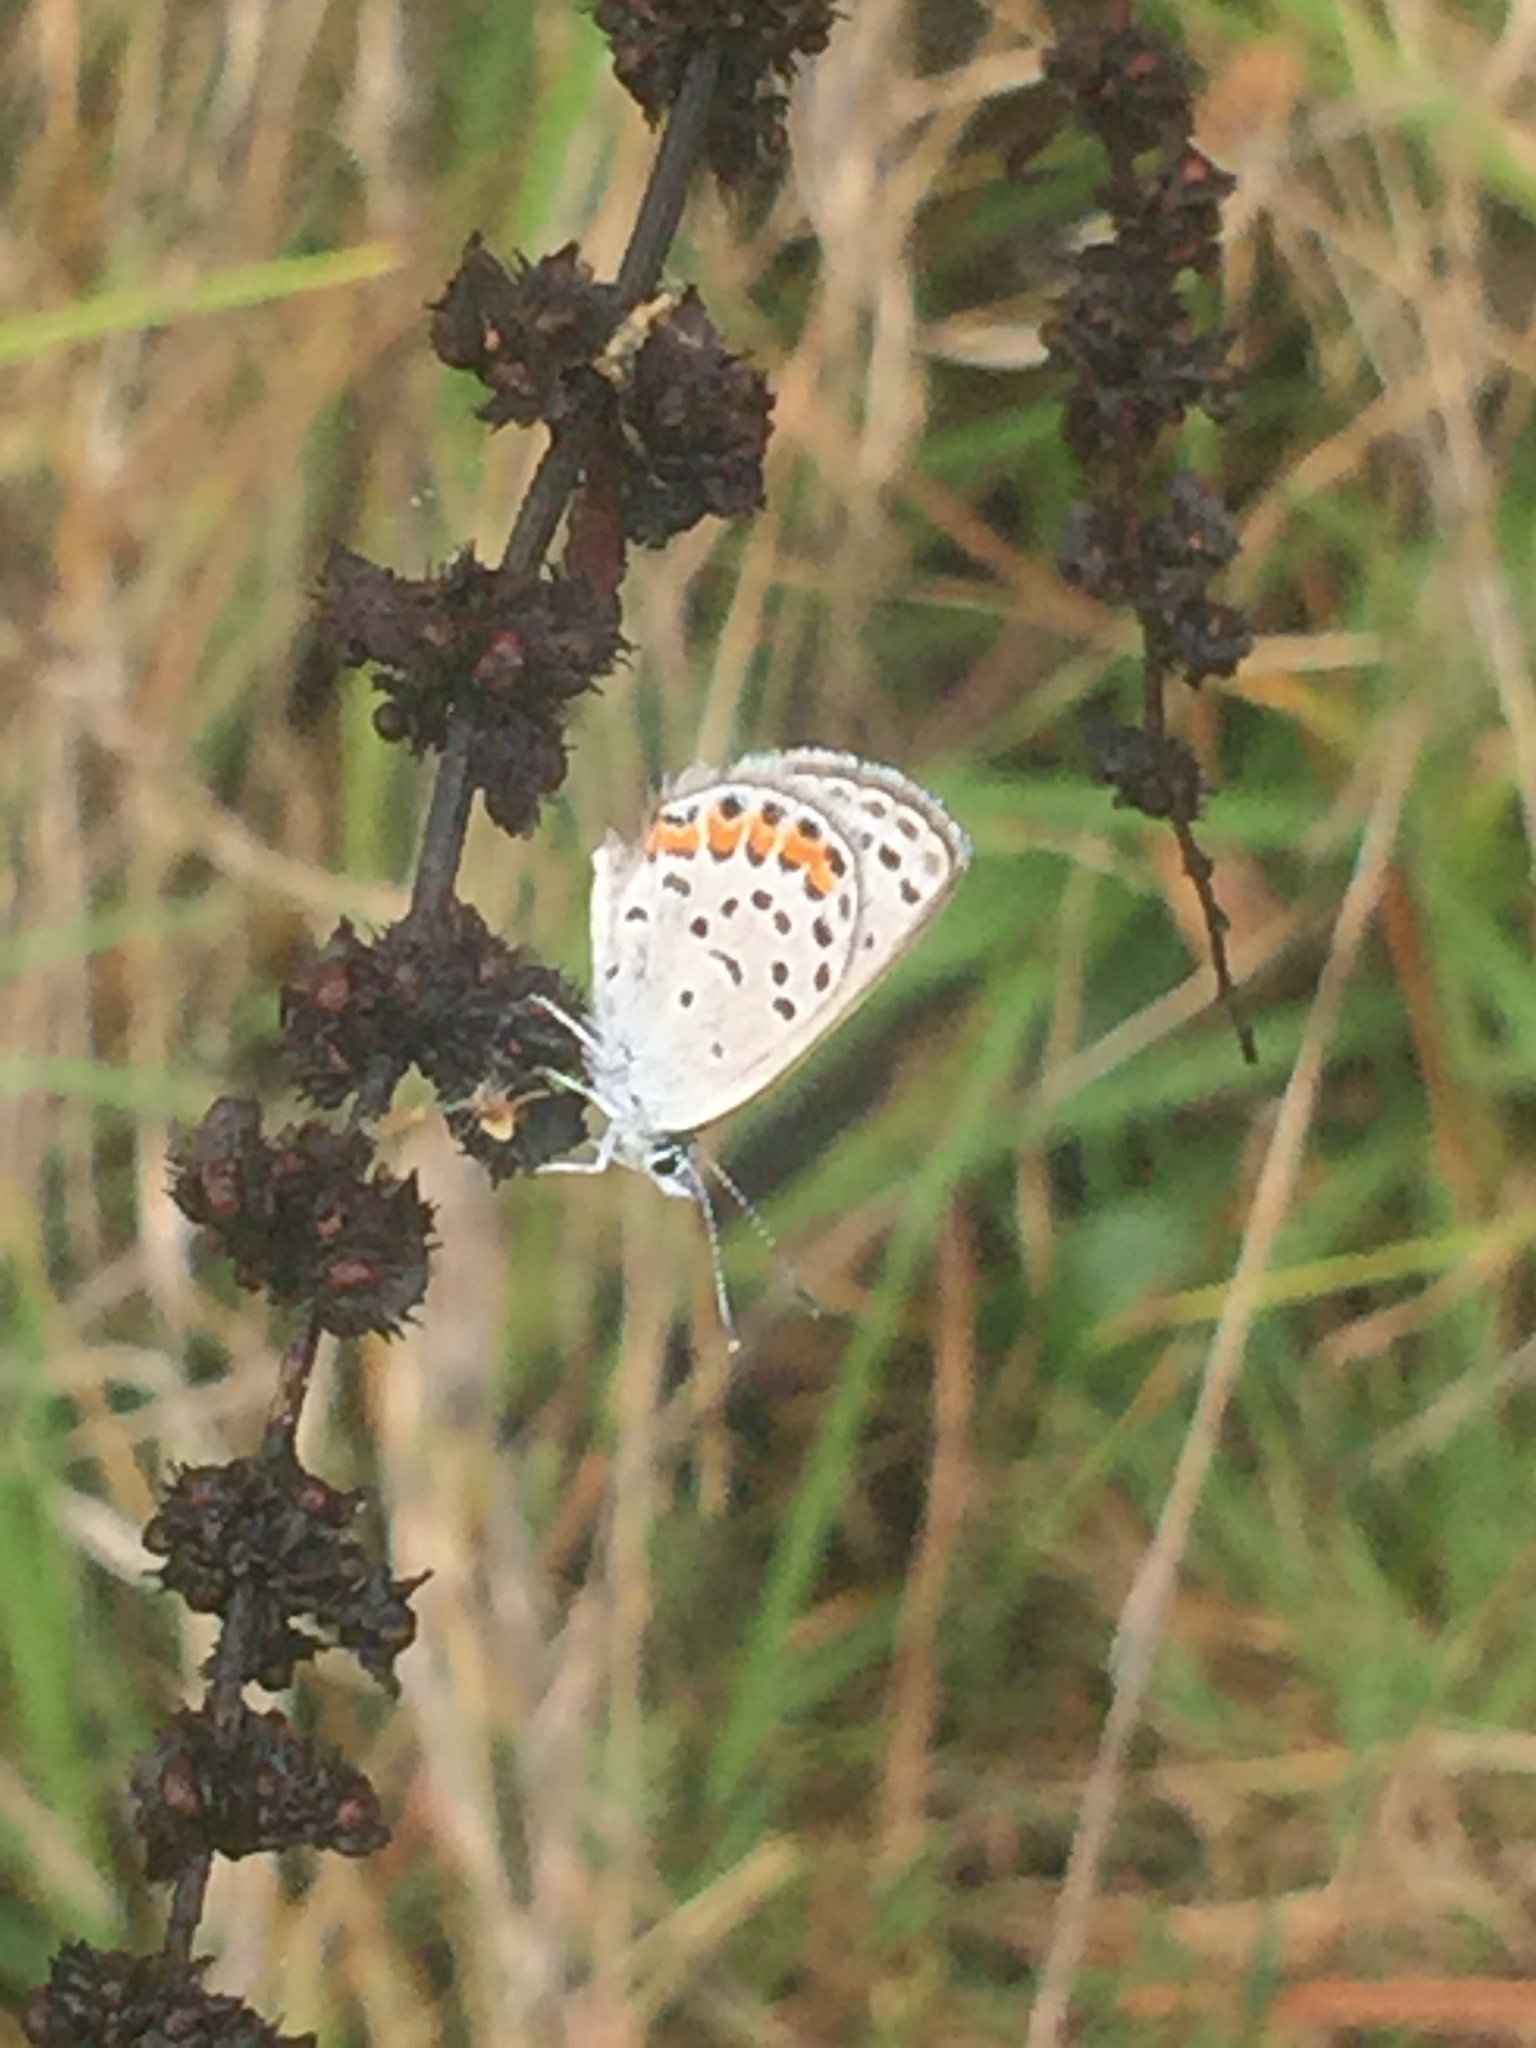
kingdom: Animalia
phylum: Arthropoda
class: Insecta
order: Lepidoptera
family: Lycaenidae
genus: Icaricia
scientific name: Icaricia acmon
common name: Acmon blue
